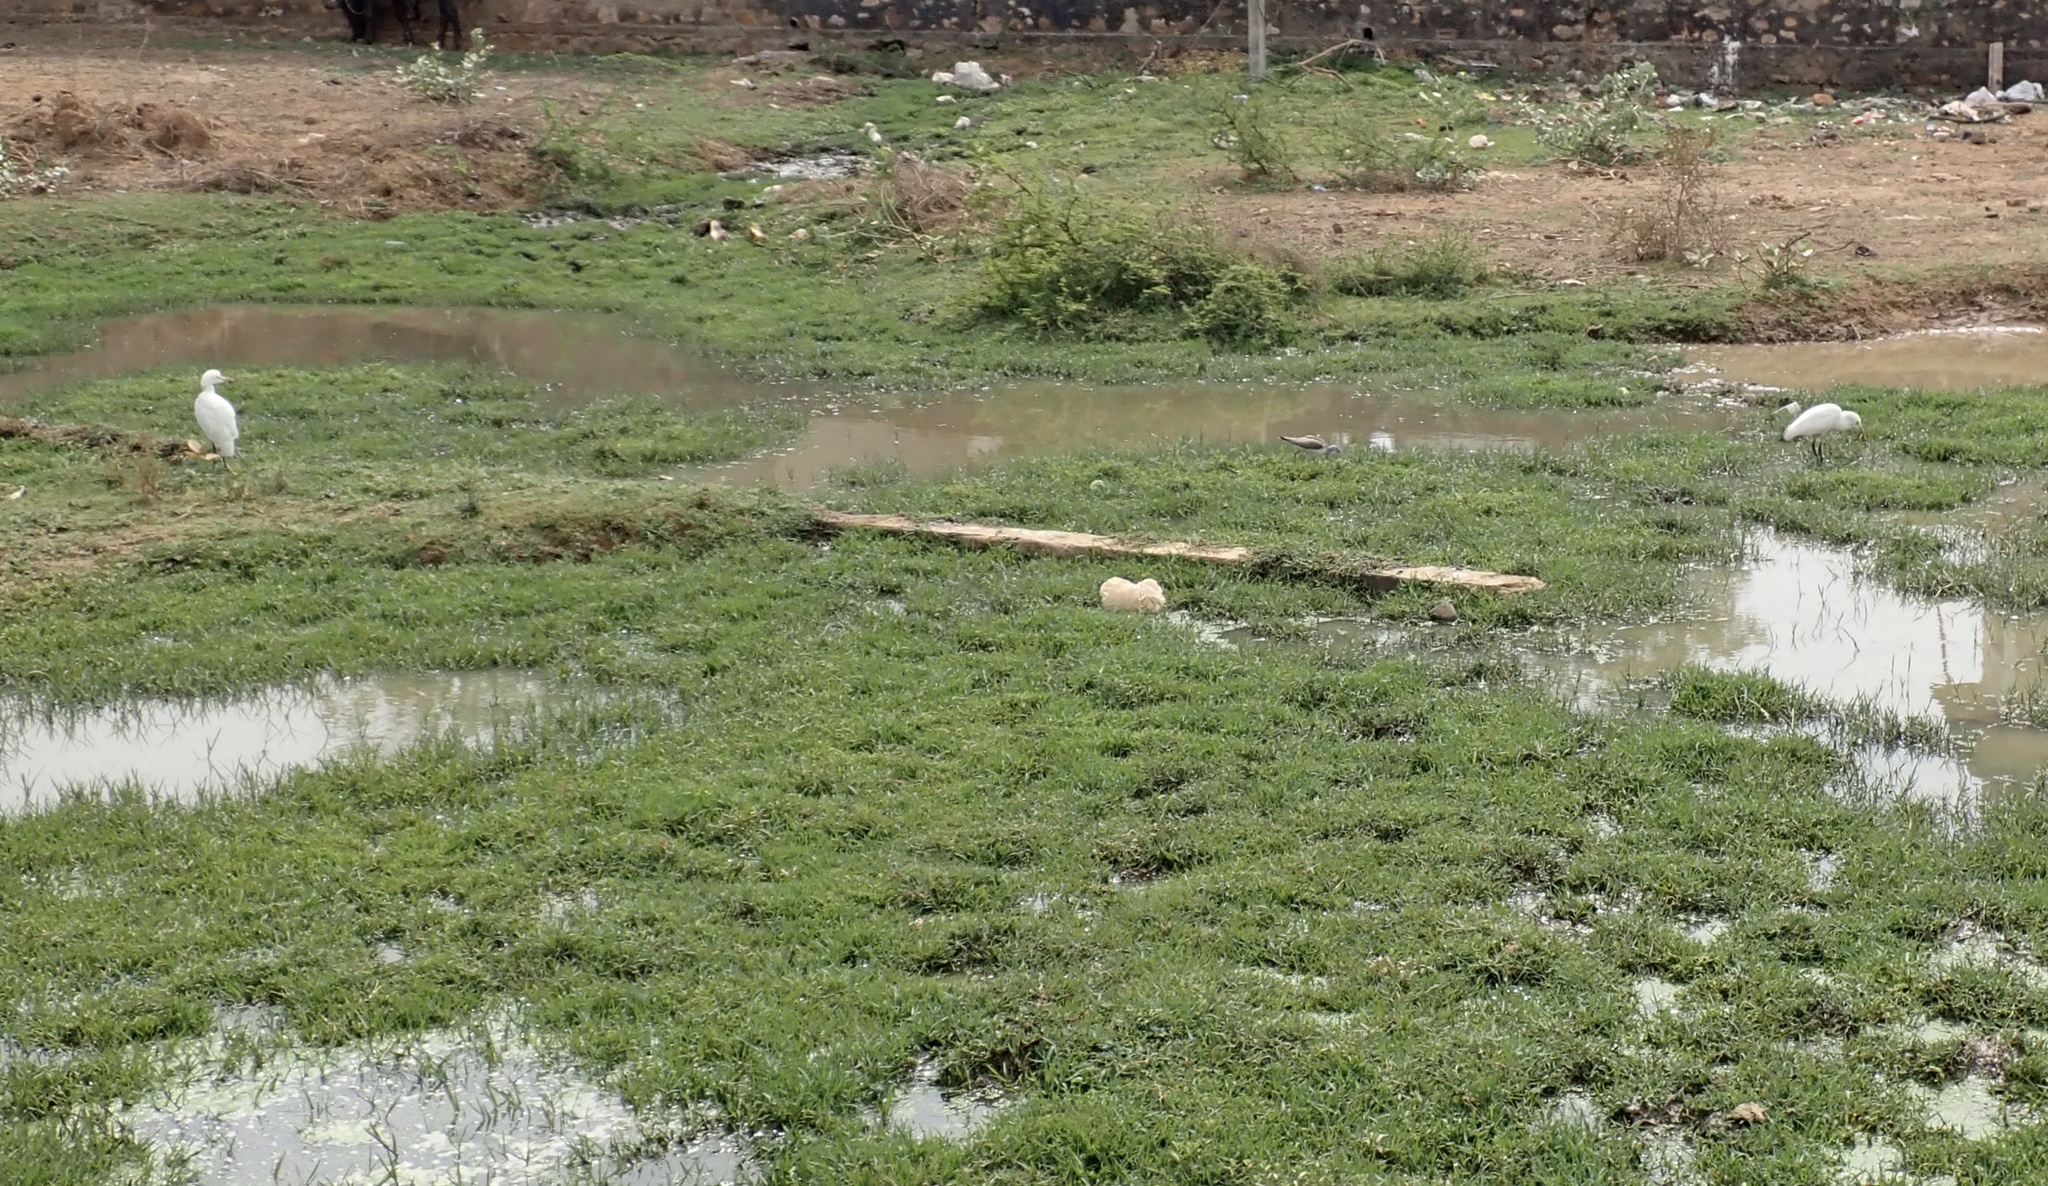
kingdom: Animalia
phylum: Chordata
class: Aves
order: Pelecaniformes
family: Ardeidae
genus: Bubulcus
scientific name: Bubulcus coromandus
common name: Eastern cattle egret
